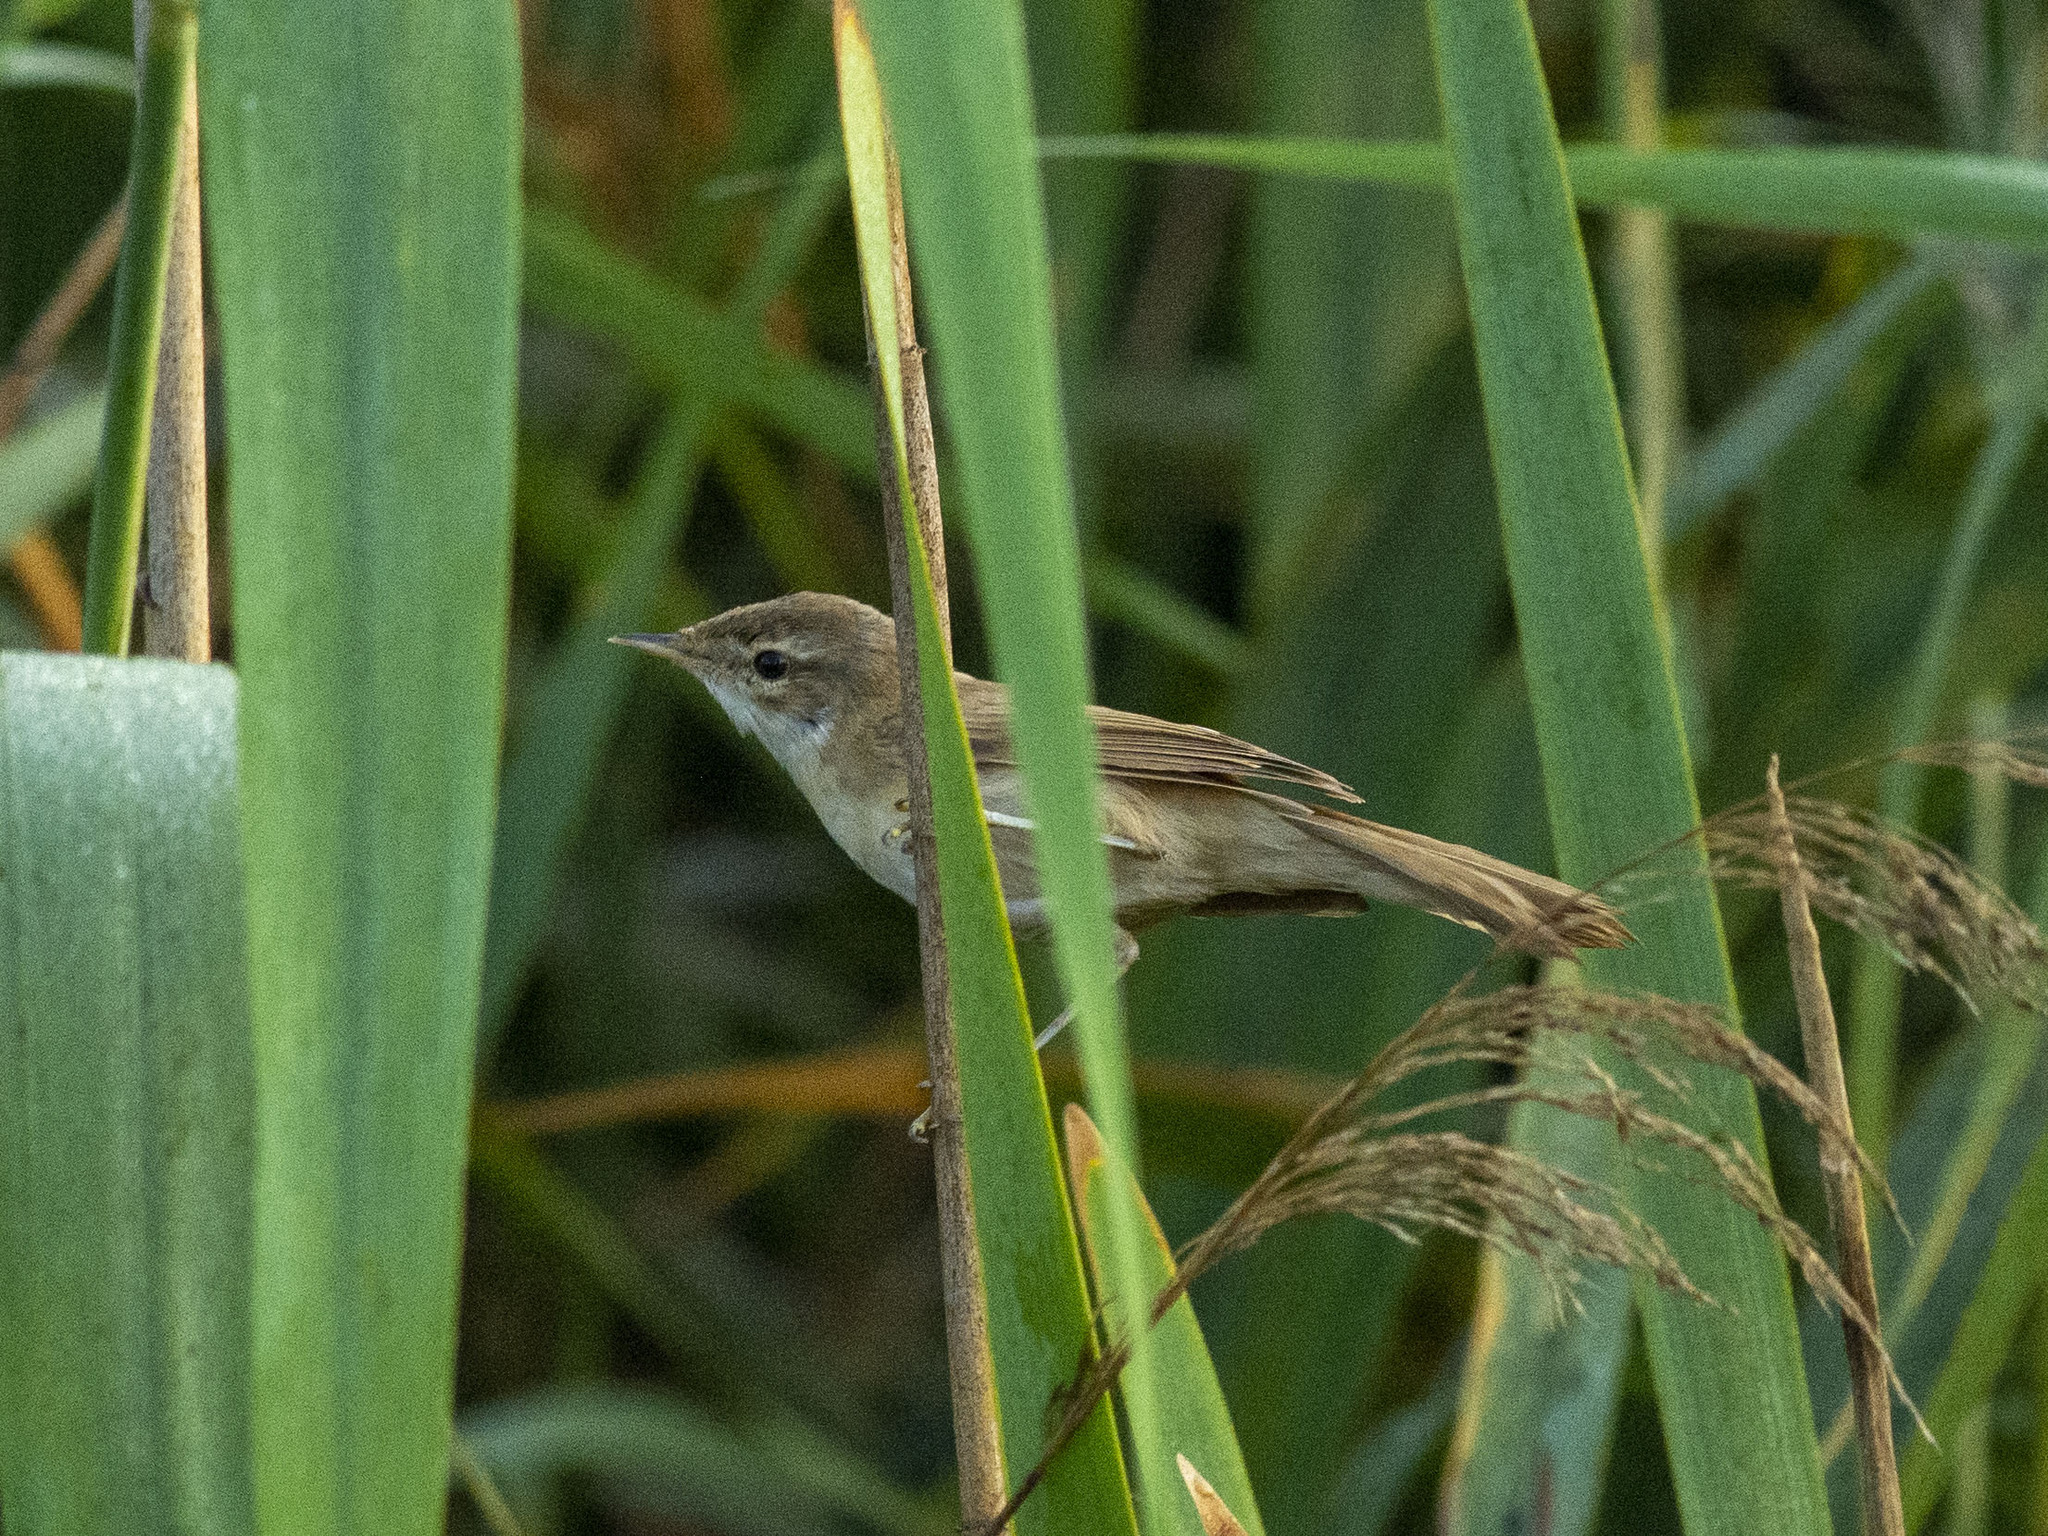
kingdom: Animalia
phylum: Chordata
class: Aves
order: Passeriformes
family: Acrocephalidae
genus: Acrocephalus
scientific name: Acrocephalus agricola
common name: Paddyfield warbler
